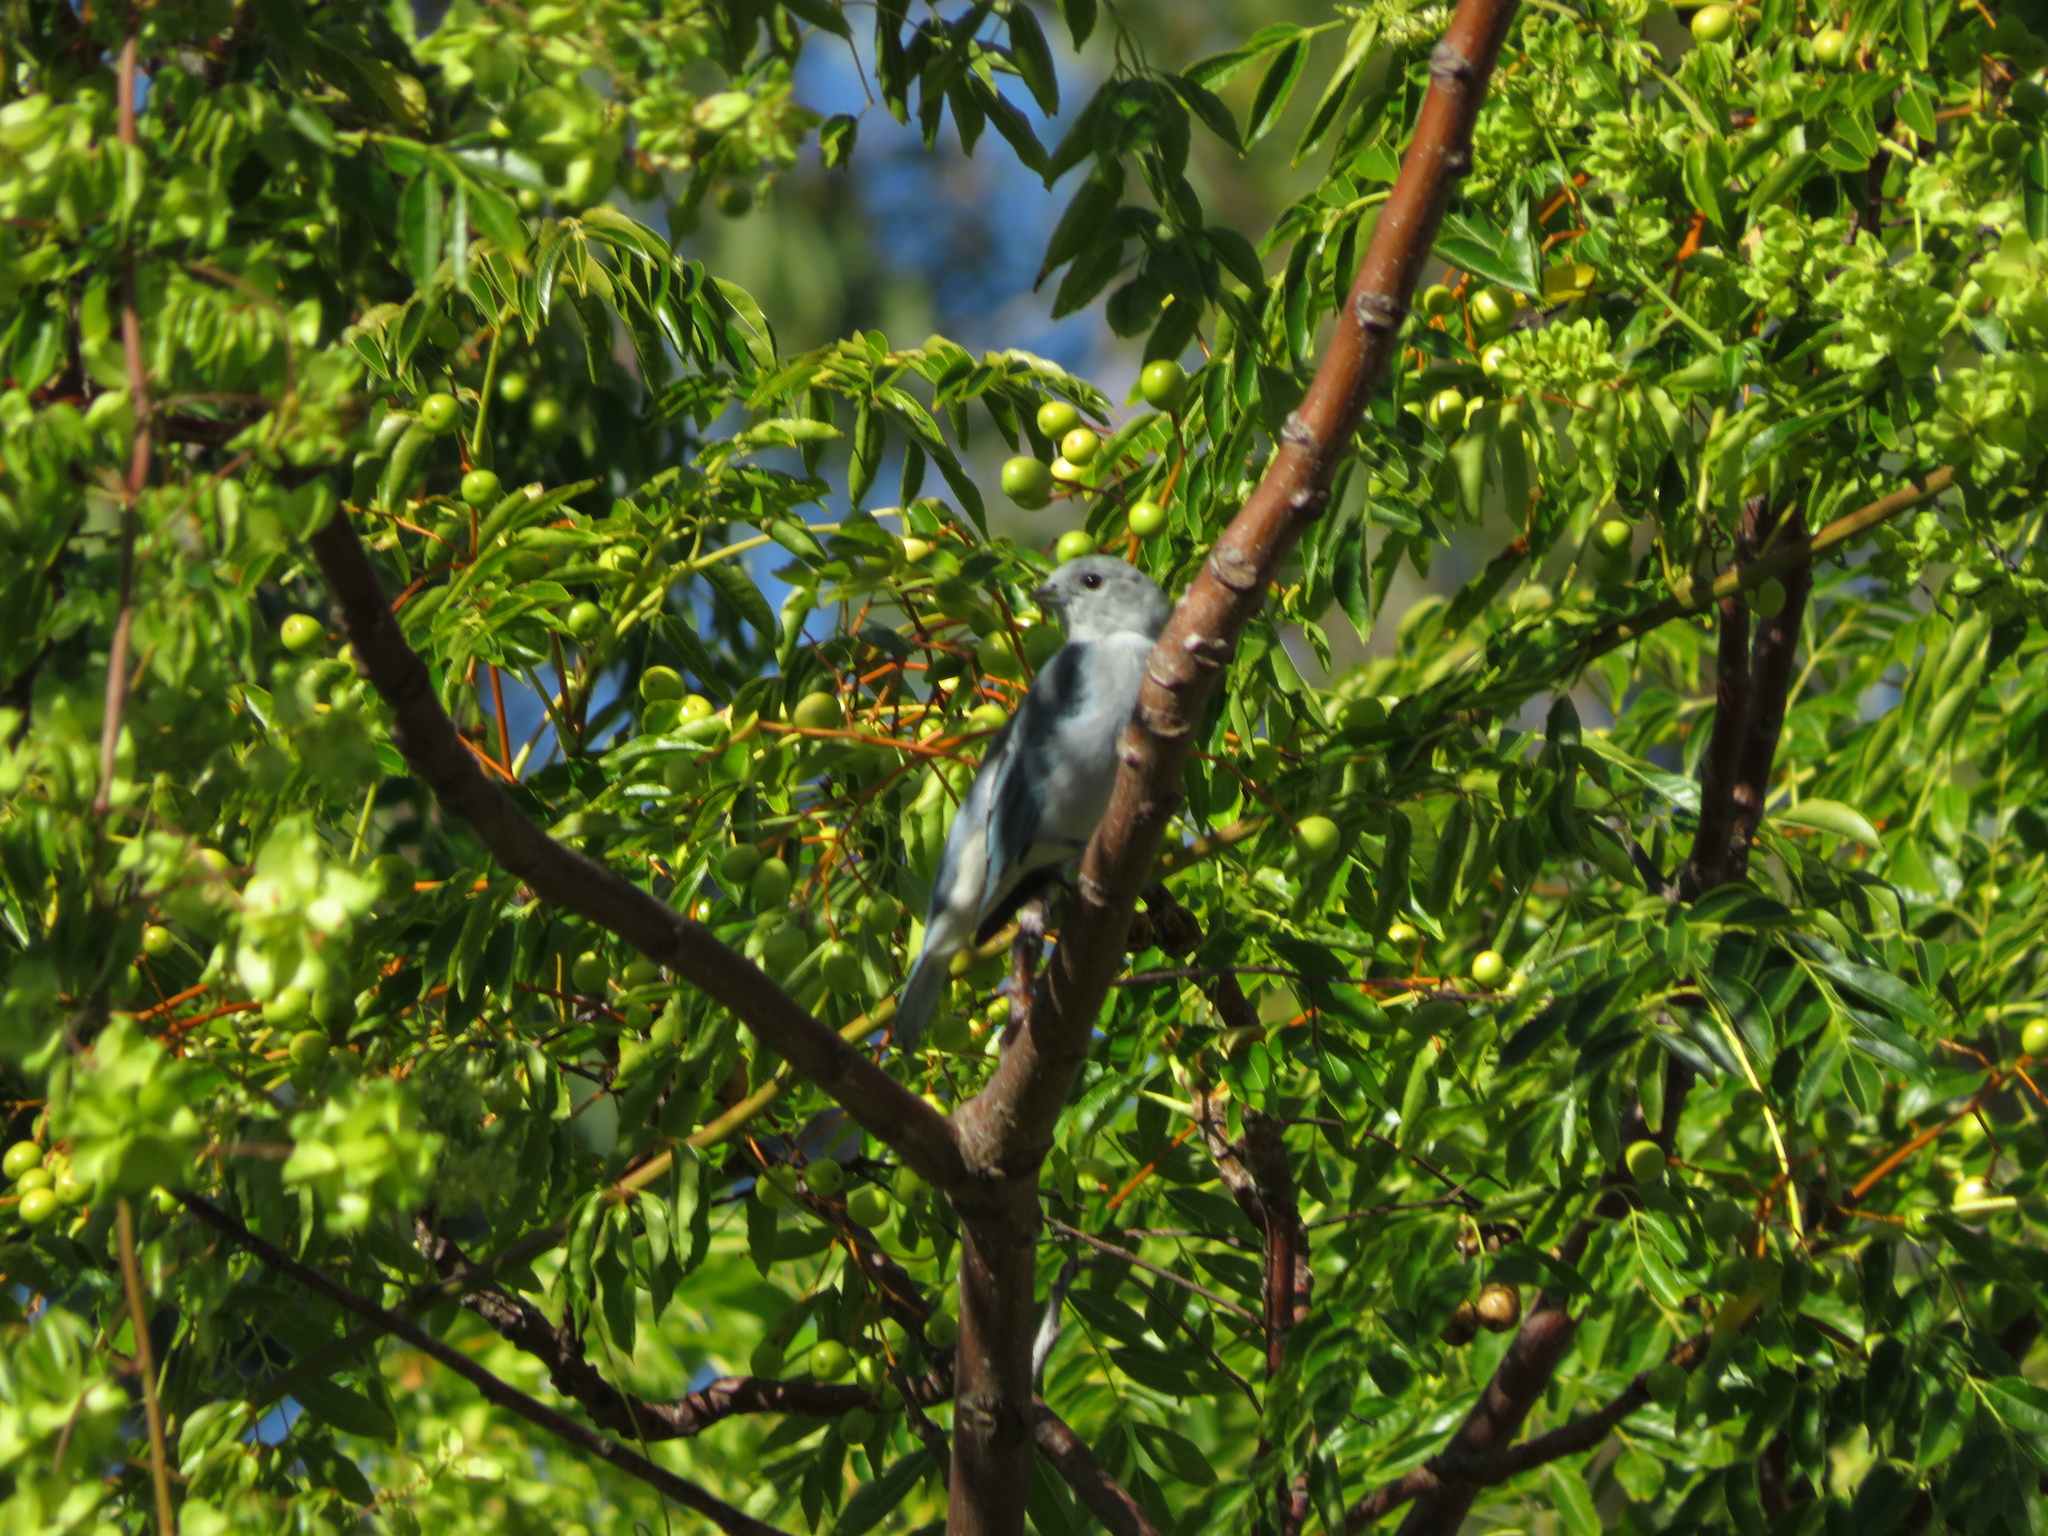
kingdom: Animalia
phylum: Chordata
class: Aves
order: Passeriformes
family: Thraupidae
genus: Thraupis
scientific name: Thraupis sayaca
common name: Sayaca tanager
